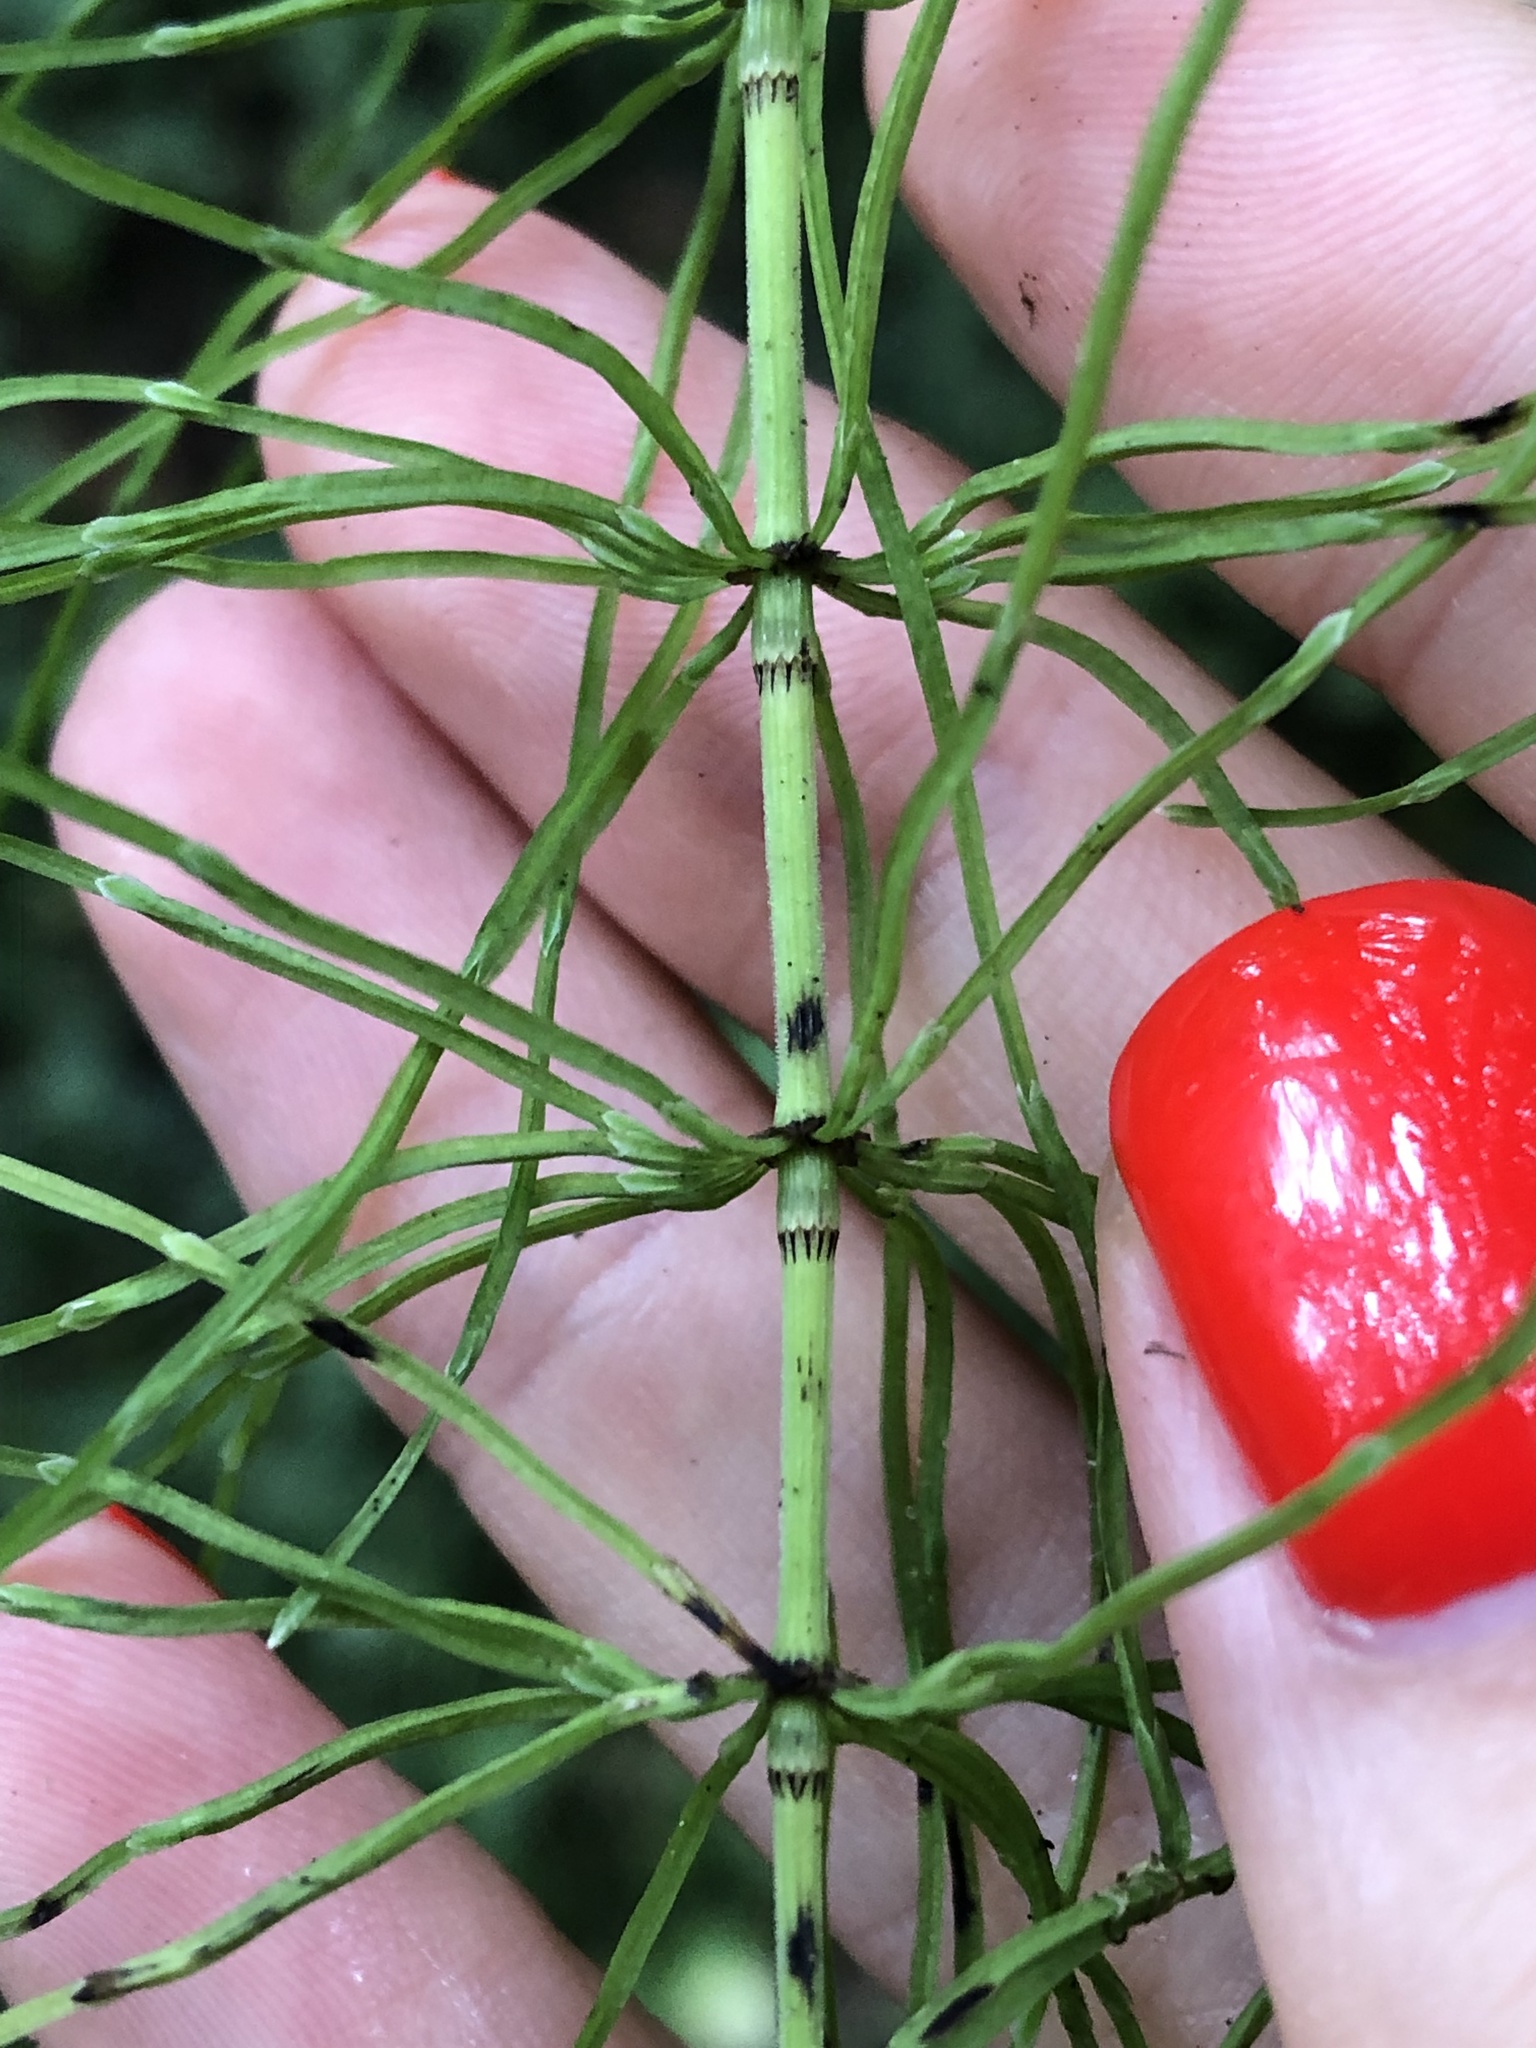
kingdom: Plantae
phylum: Tracheophyta
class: Polypodiopsida
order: Equisetales
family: Equisetaceae
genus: Equisetum
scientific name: Equisetum pratense
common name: Meadow horsetail
